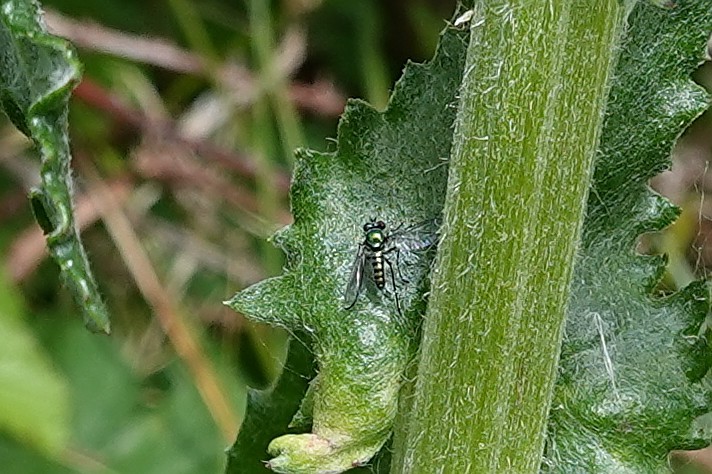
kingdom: Animalia
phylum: Arthropoda
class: Insecta
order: Diptera
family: Dolichopodidae
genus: Parentia
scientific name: Parentia
